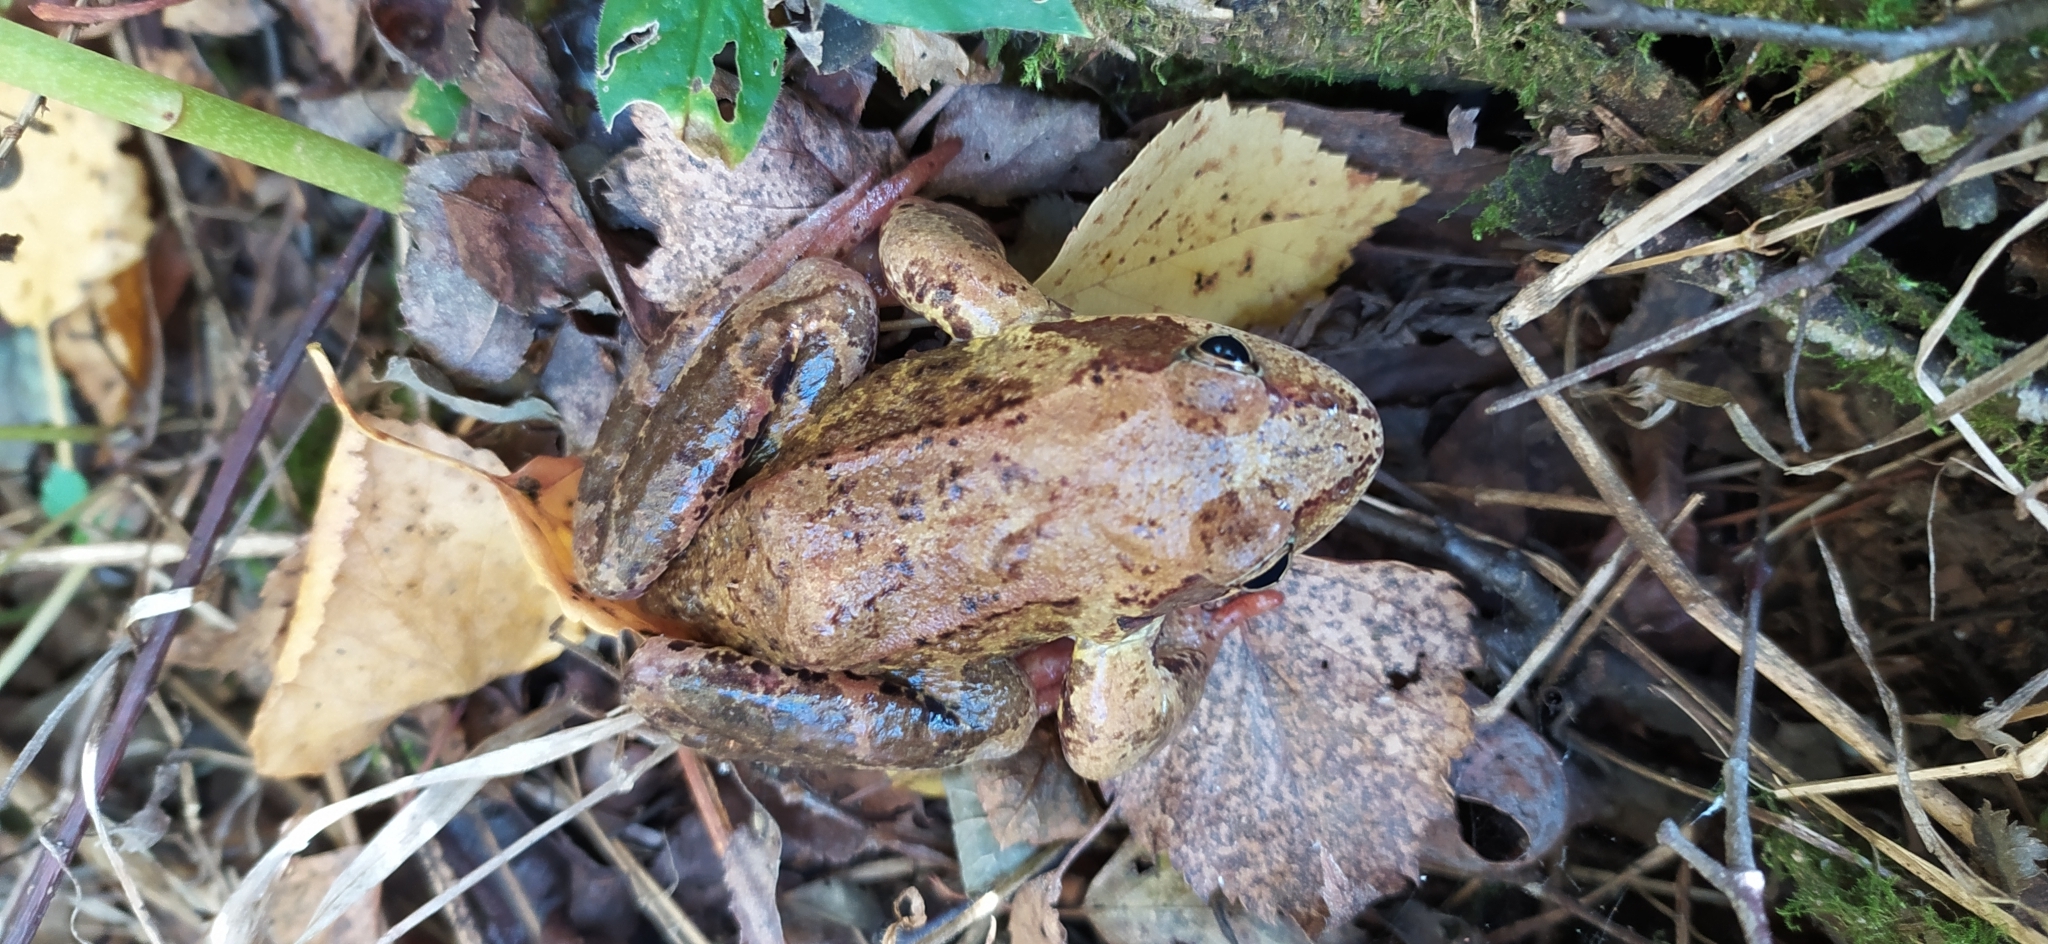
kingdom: Animalia
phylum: Chordata
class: Amphibia
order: Anura
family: Ranidae
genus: Rana
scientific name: Rana temporaria
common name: Common frog
